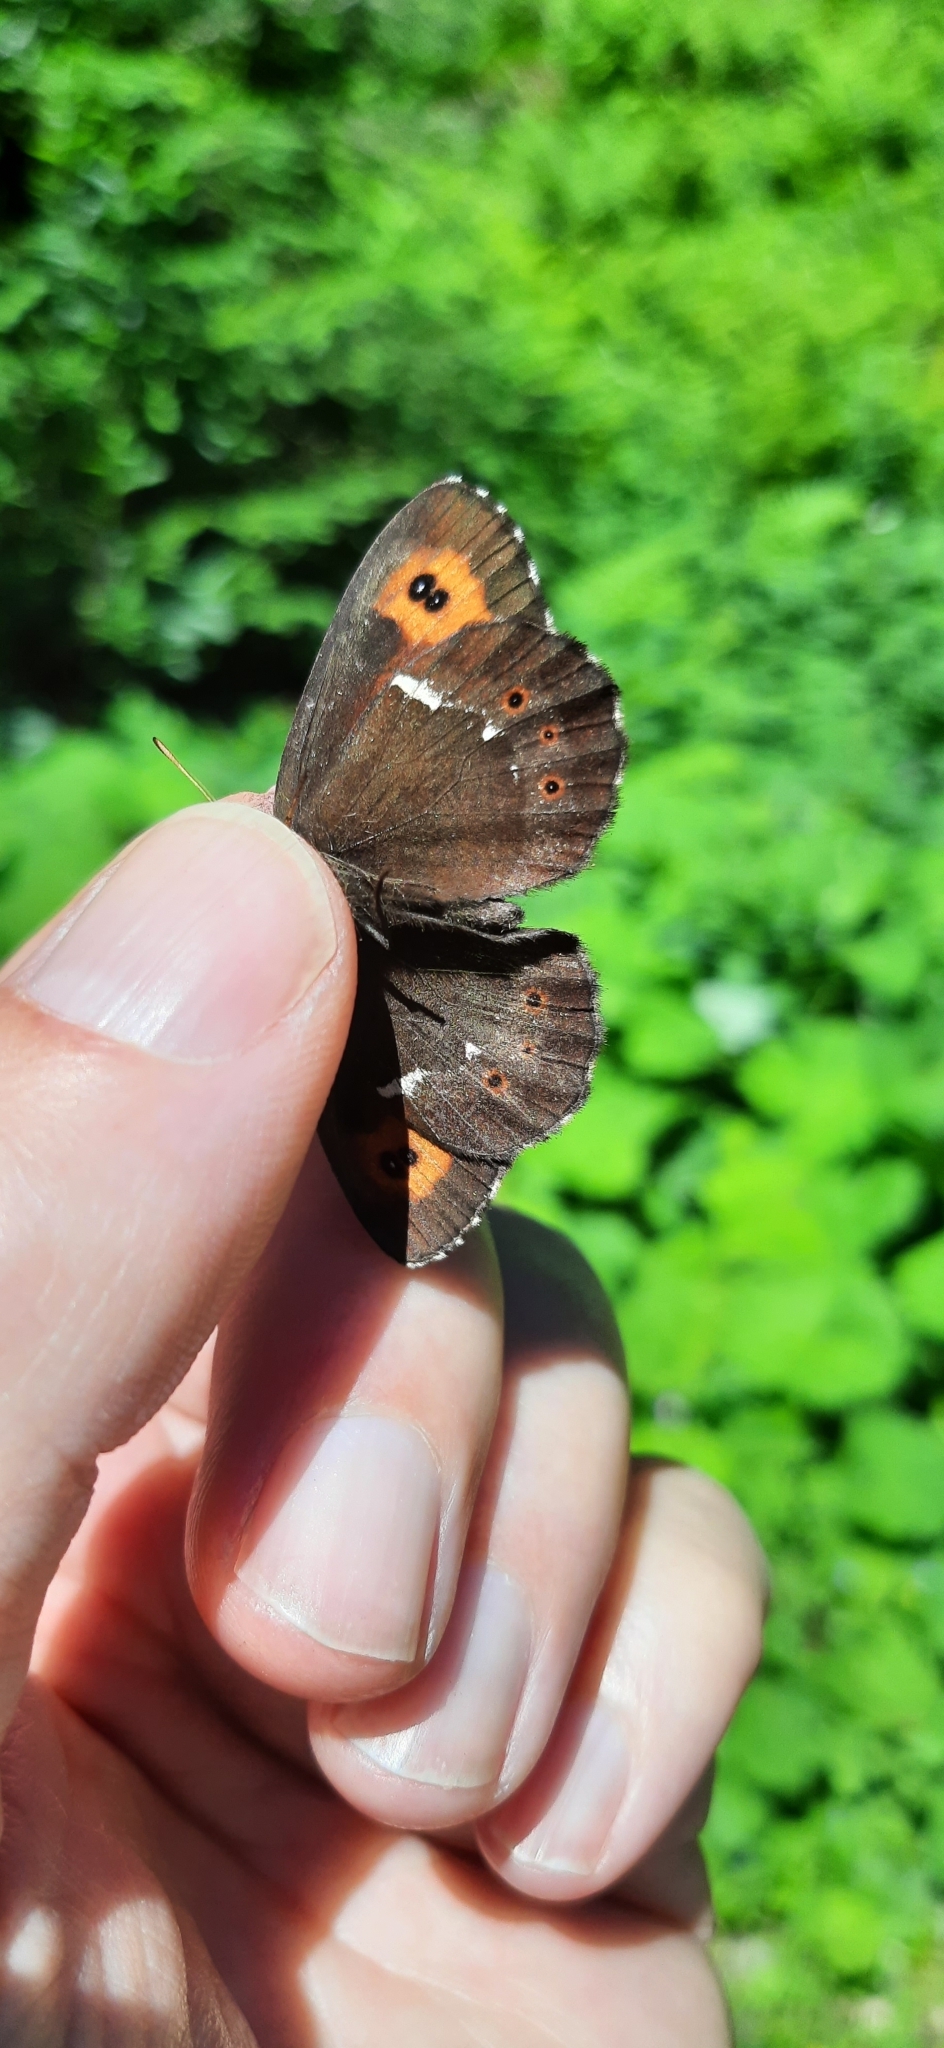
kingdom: Animalia
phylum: Arthropoda
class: Insecta
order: Lepidoptera
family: Nymphalidae
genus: Erebia
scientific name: Erebia ligea
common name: Arran brown
